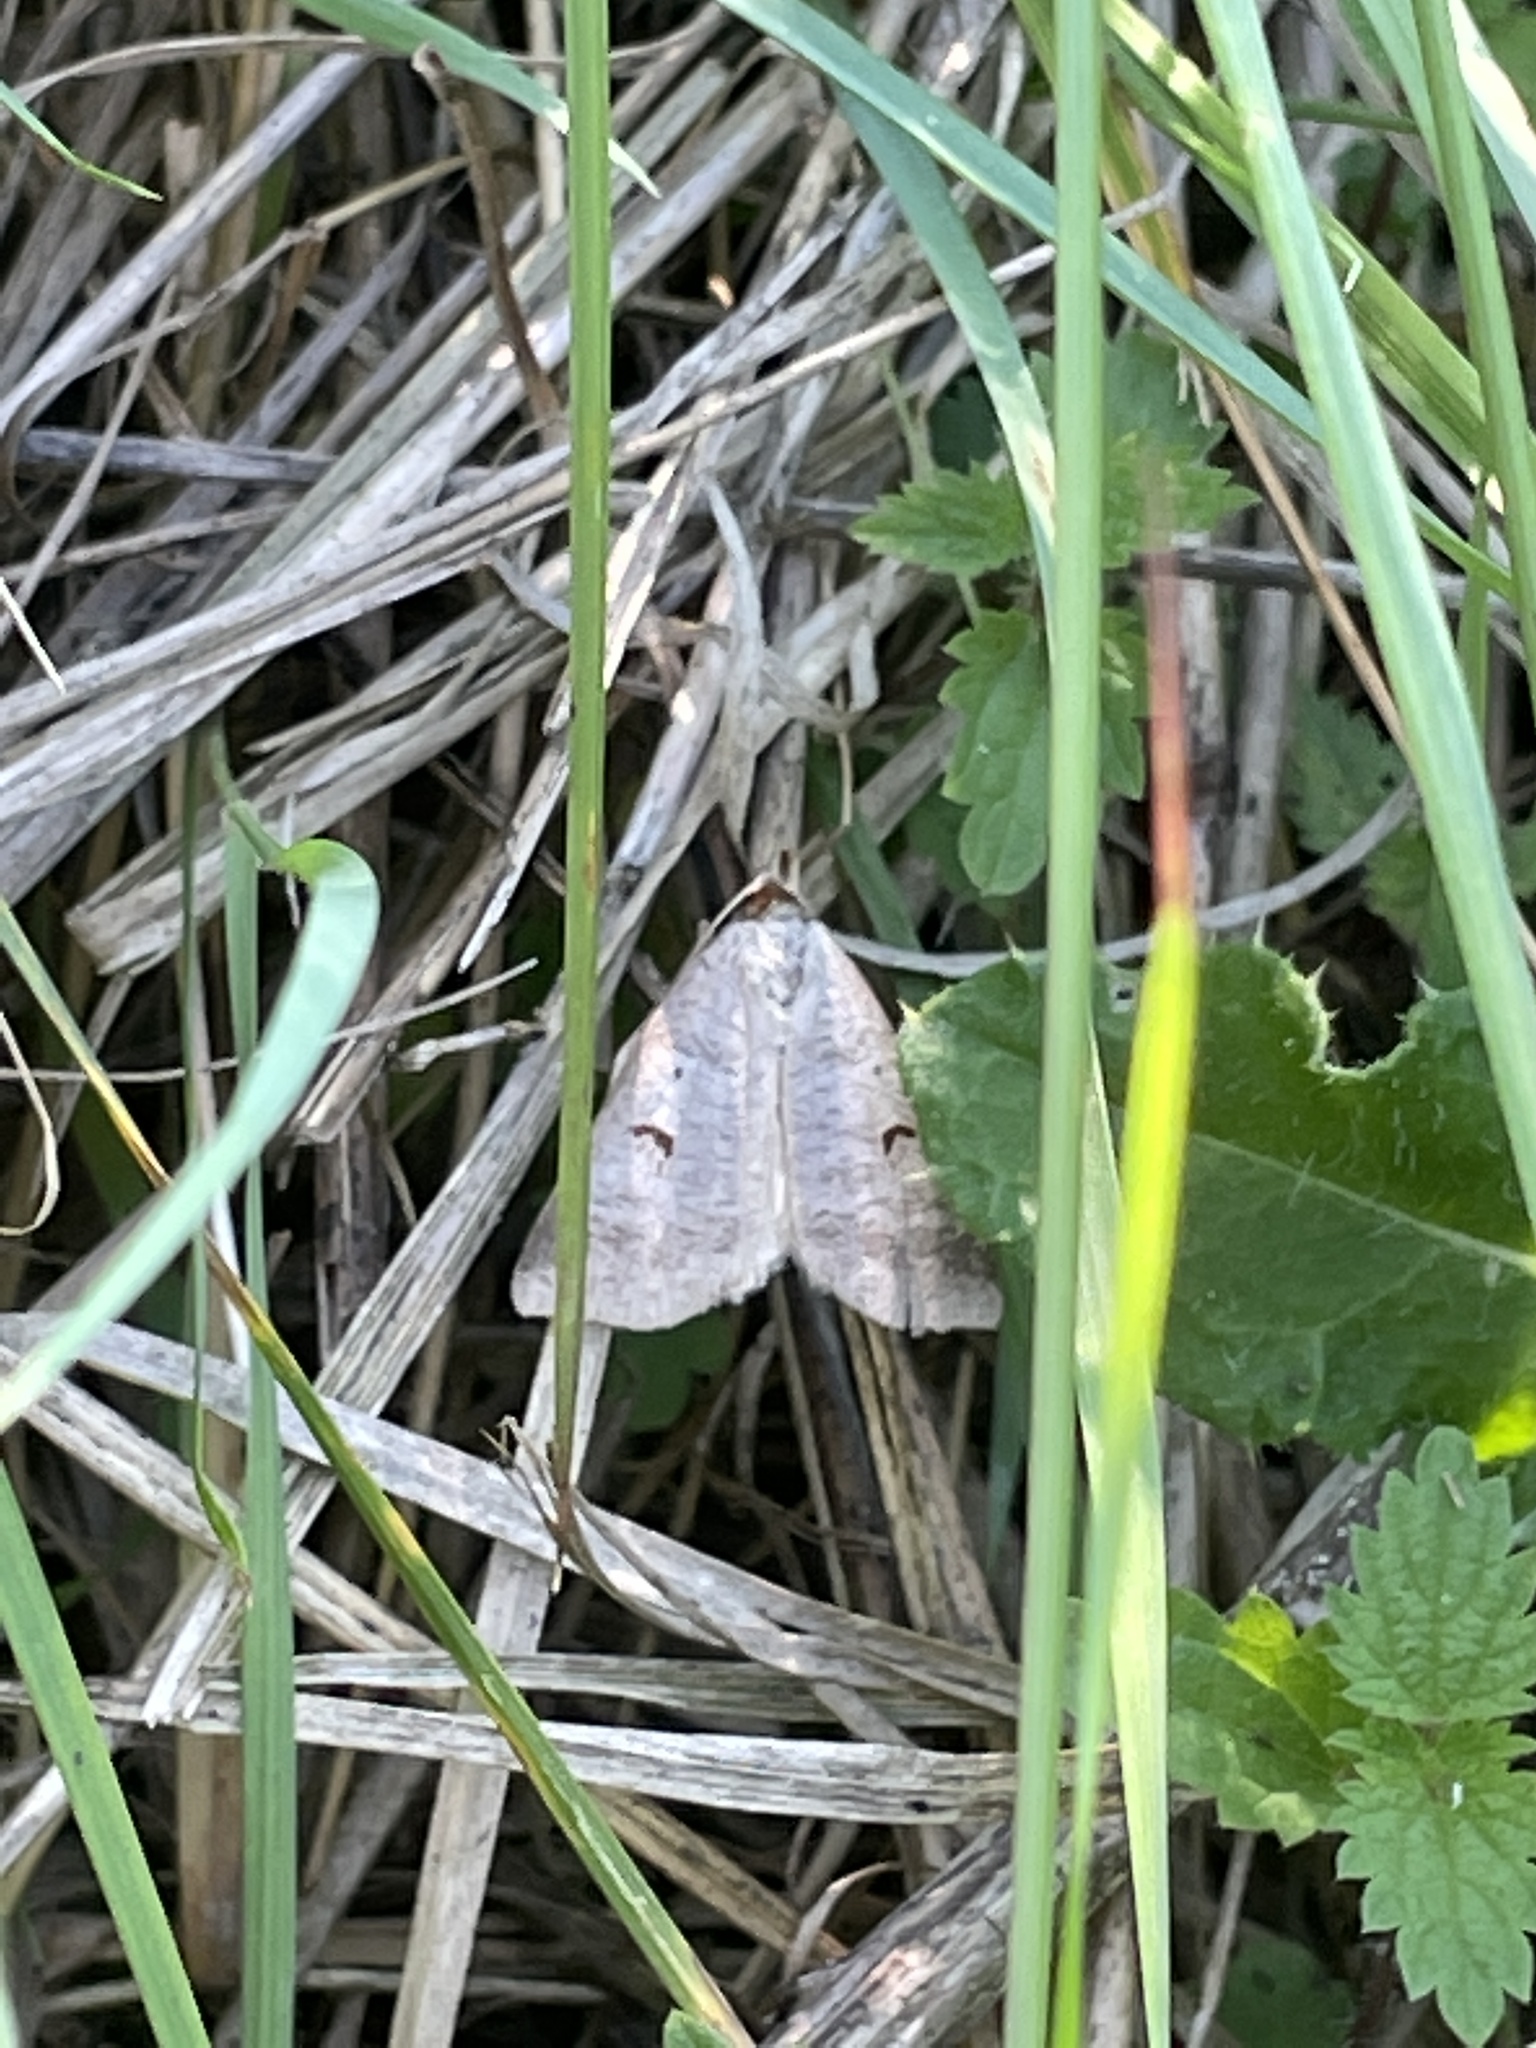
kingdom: Animalia
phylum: Arthropoda
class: Insecta
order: Lepidoptera
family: Erebidae
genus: Lygephila
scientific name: Lygephila pastinum
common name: Blackneck
